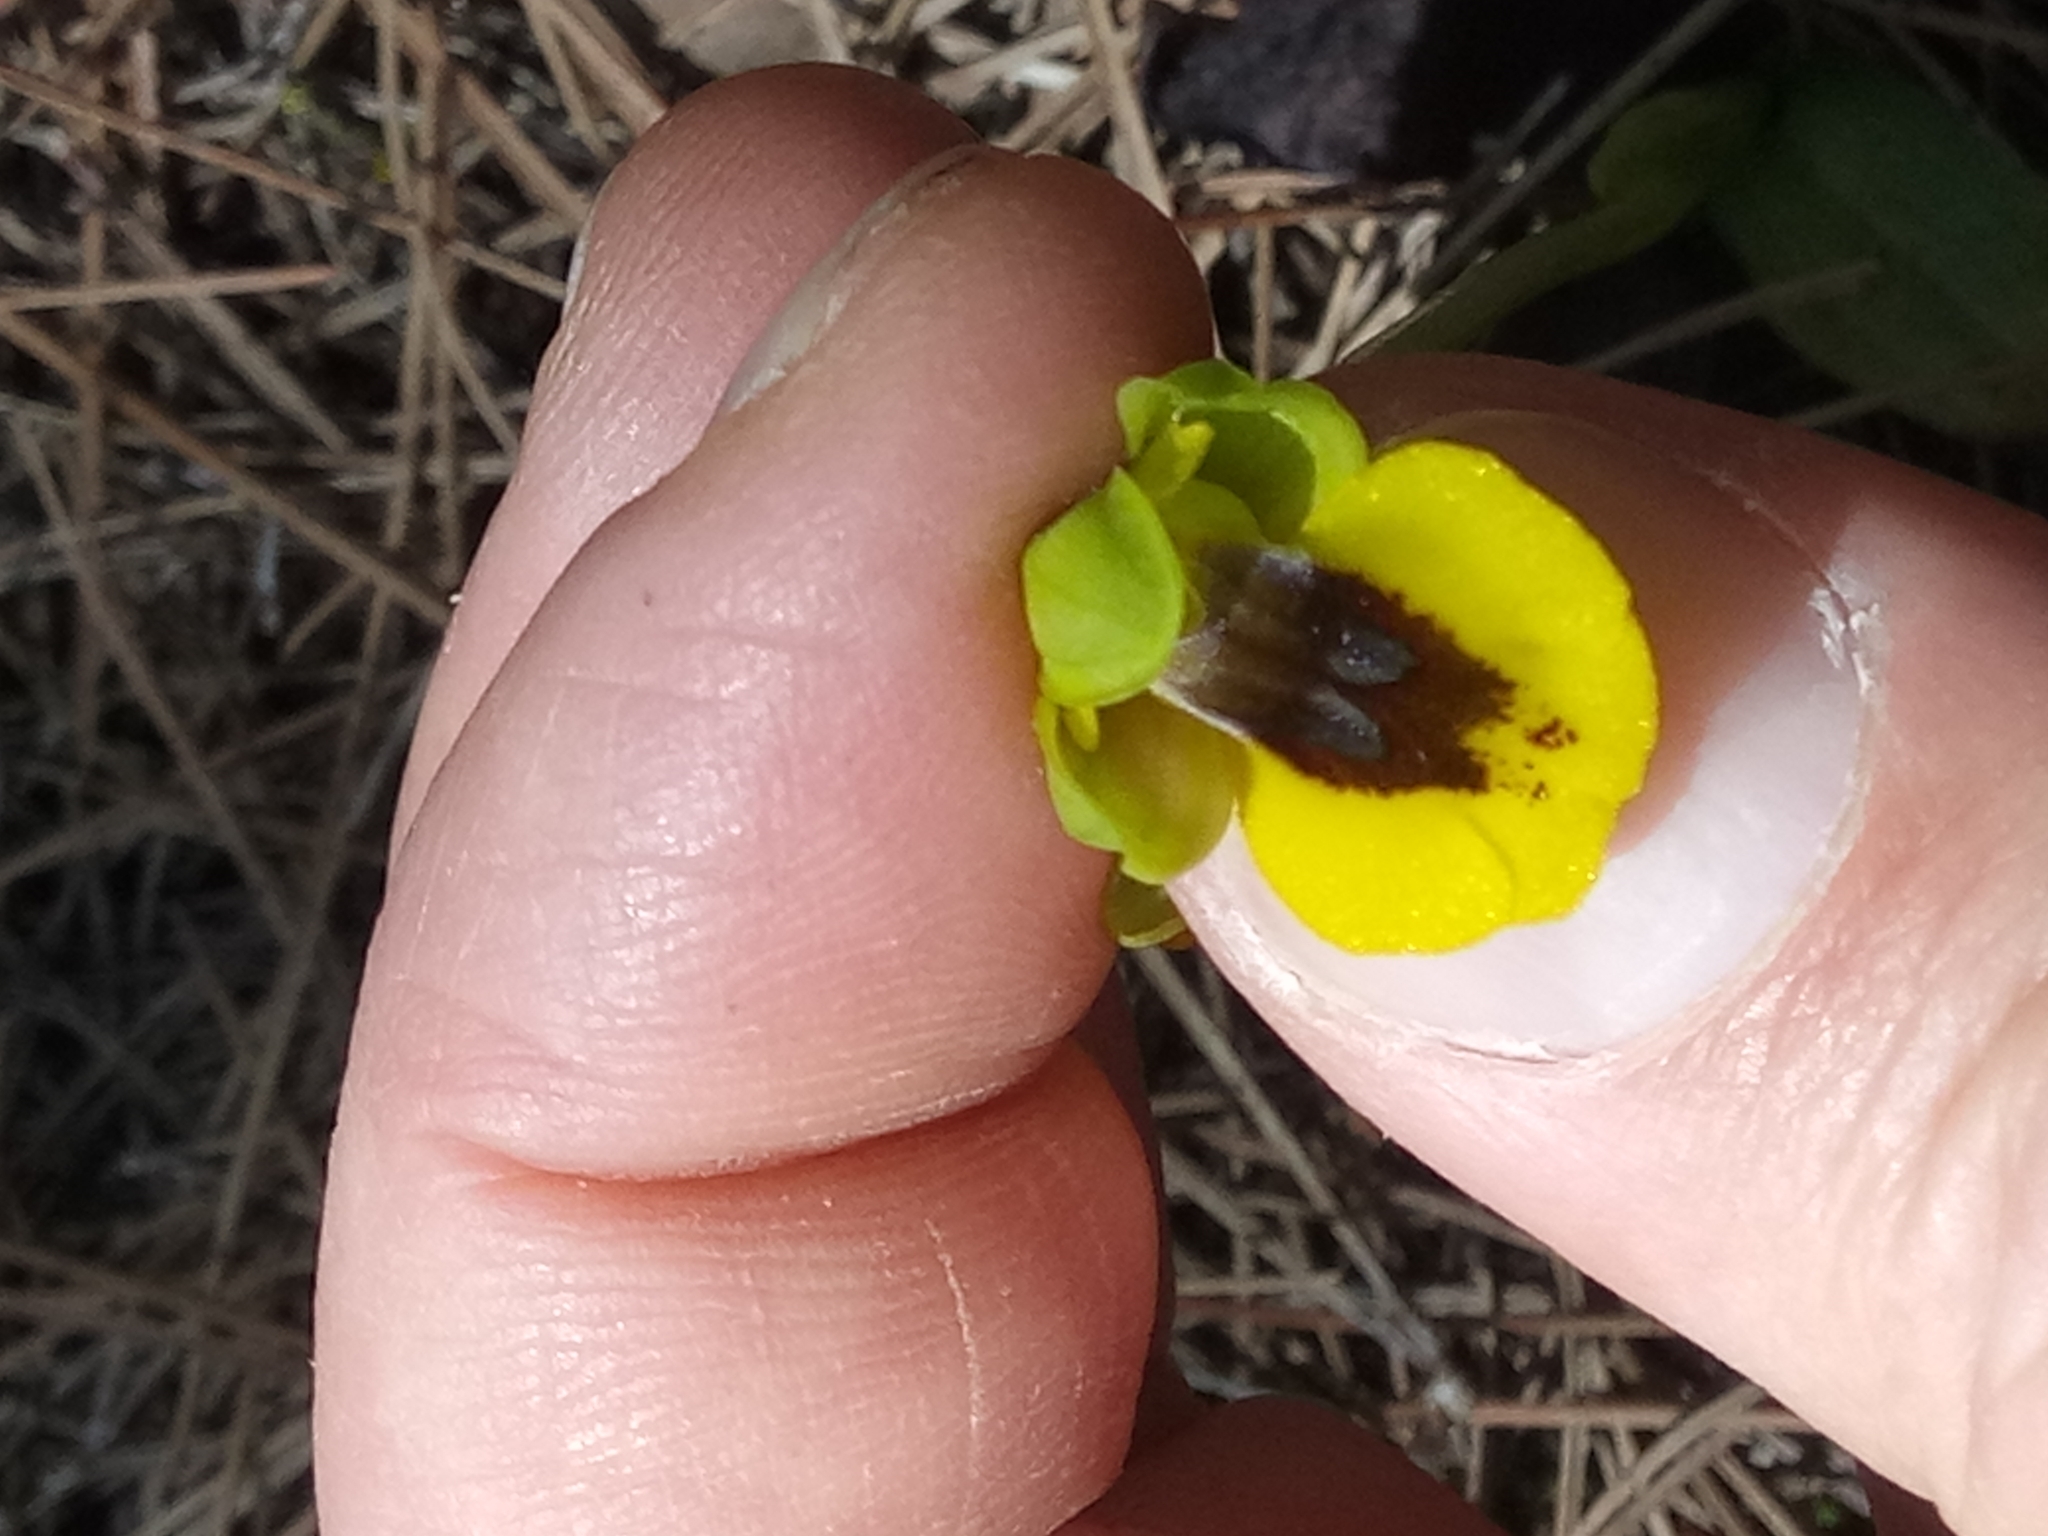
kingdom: Plantae
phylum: Tracheophyta
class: Liliopsida
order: Asparagales
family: Orchidaceae
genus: Ophrys
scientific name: Ophrys lutea
